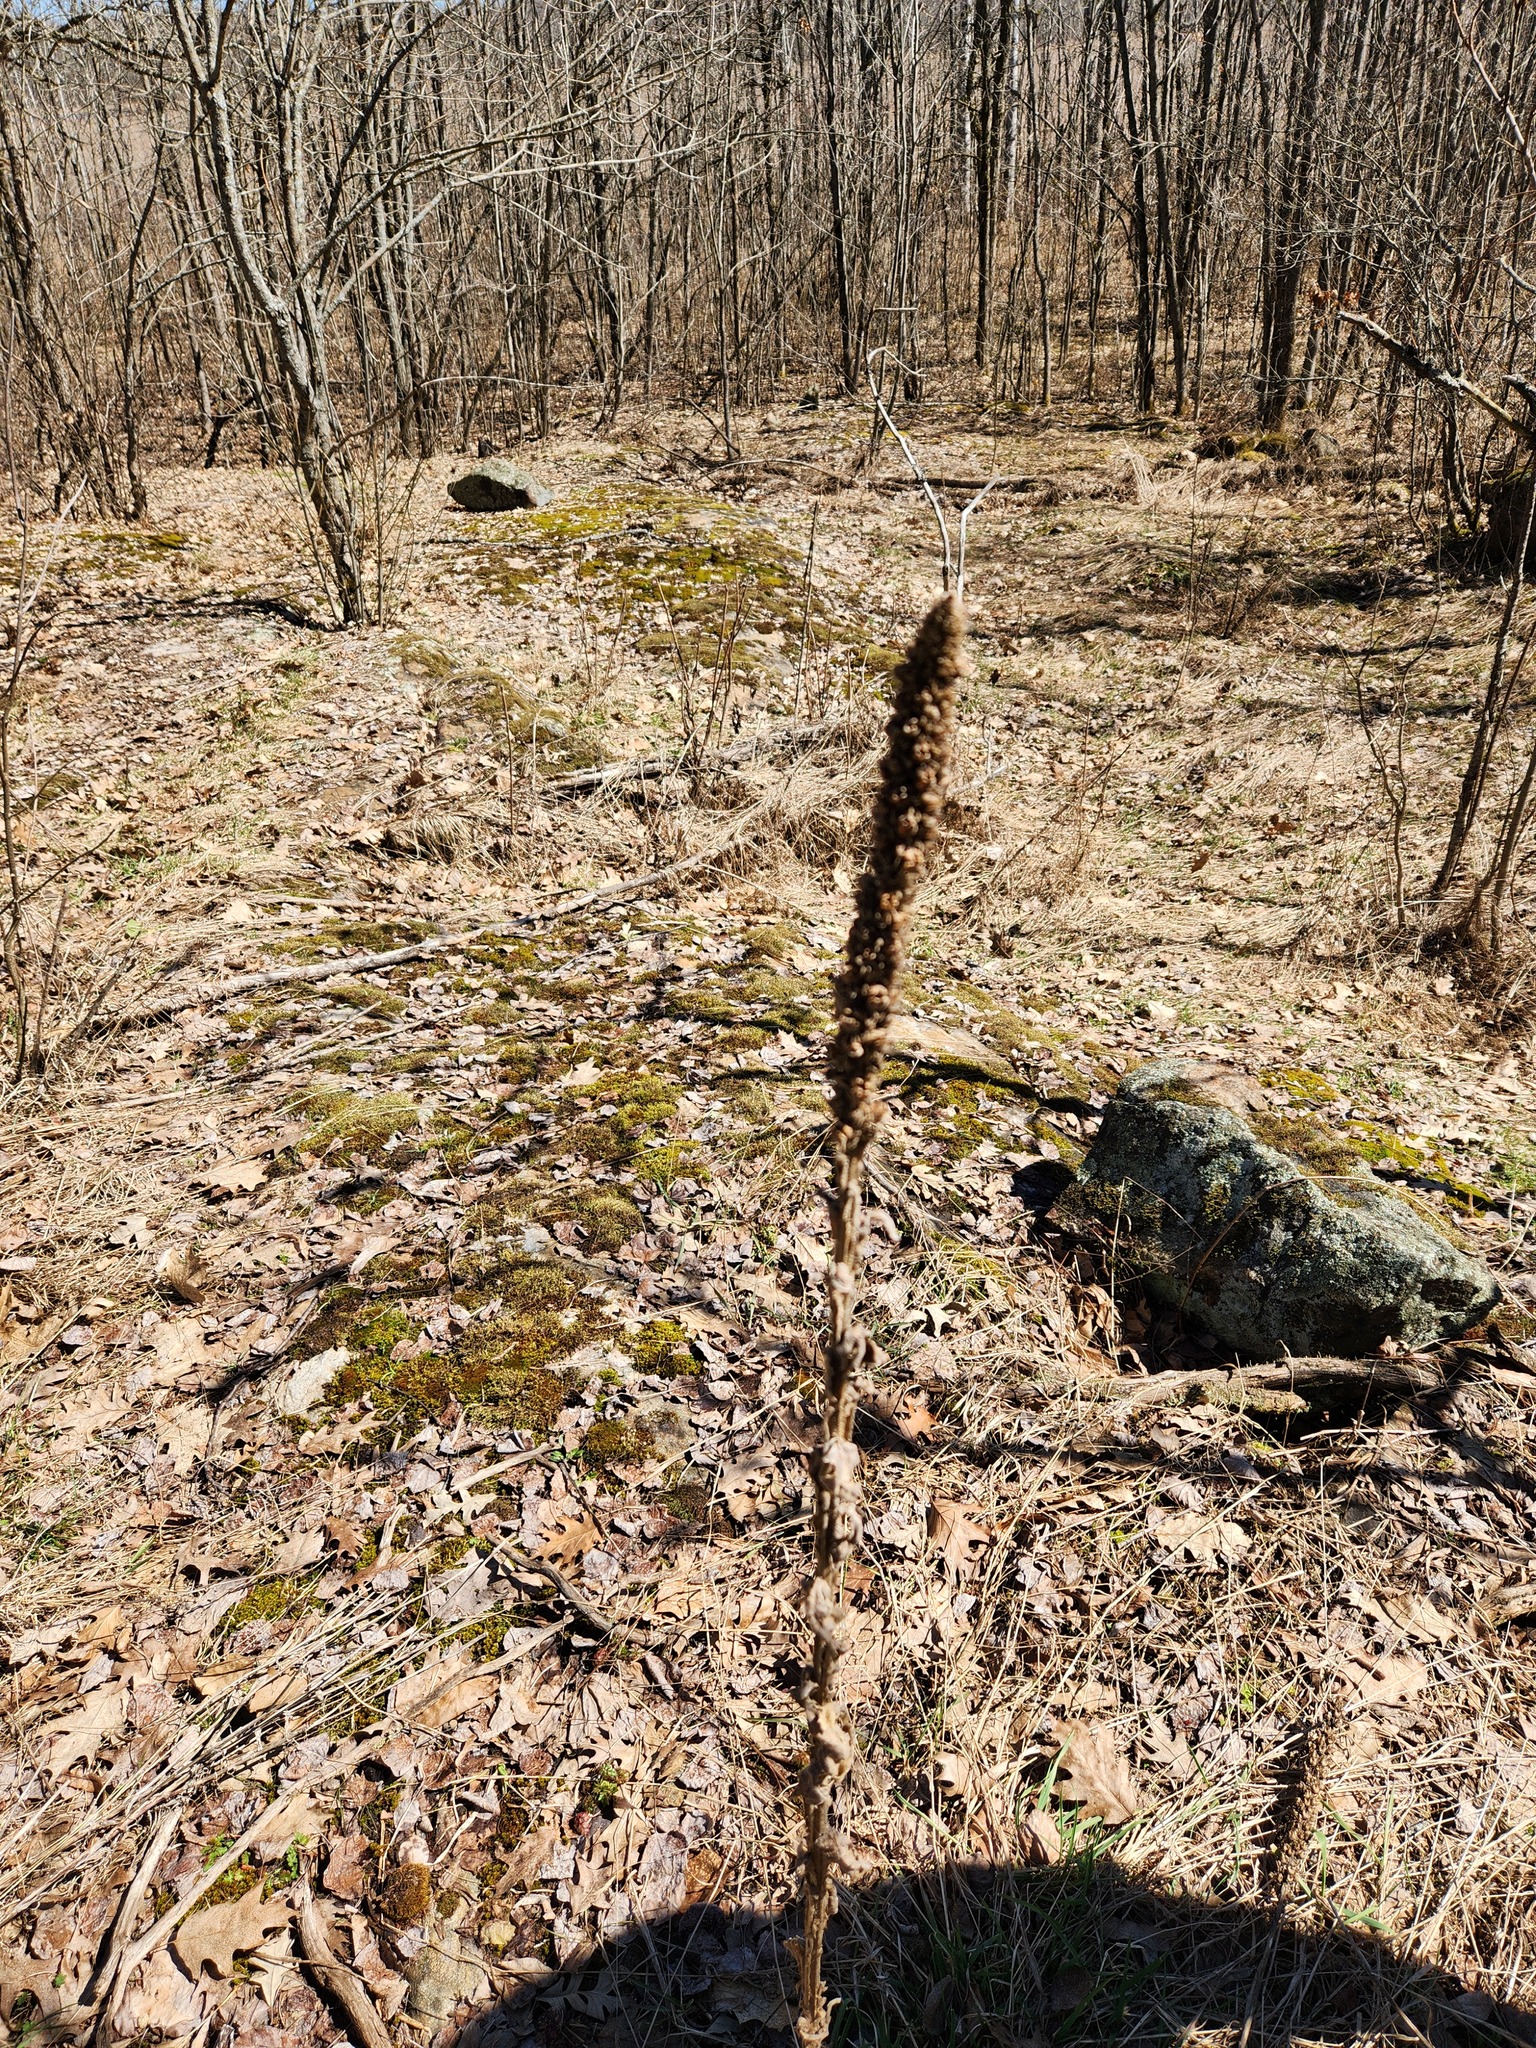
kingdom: Plantae
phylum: Tracheophyta
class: Magnoliopsida
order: Lamiales
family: Scrophulariaceae
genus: Verbascum
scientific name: Verbascum thapsus
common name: Common mullein
